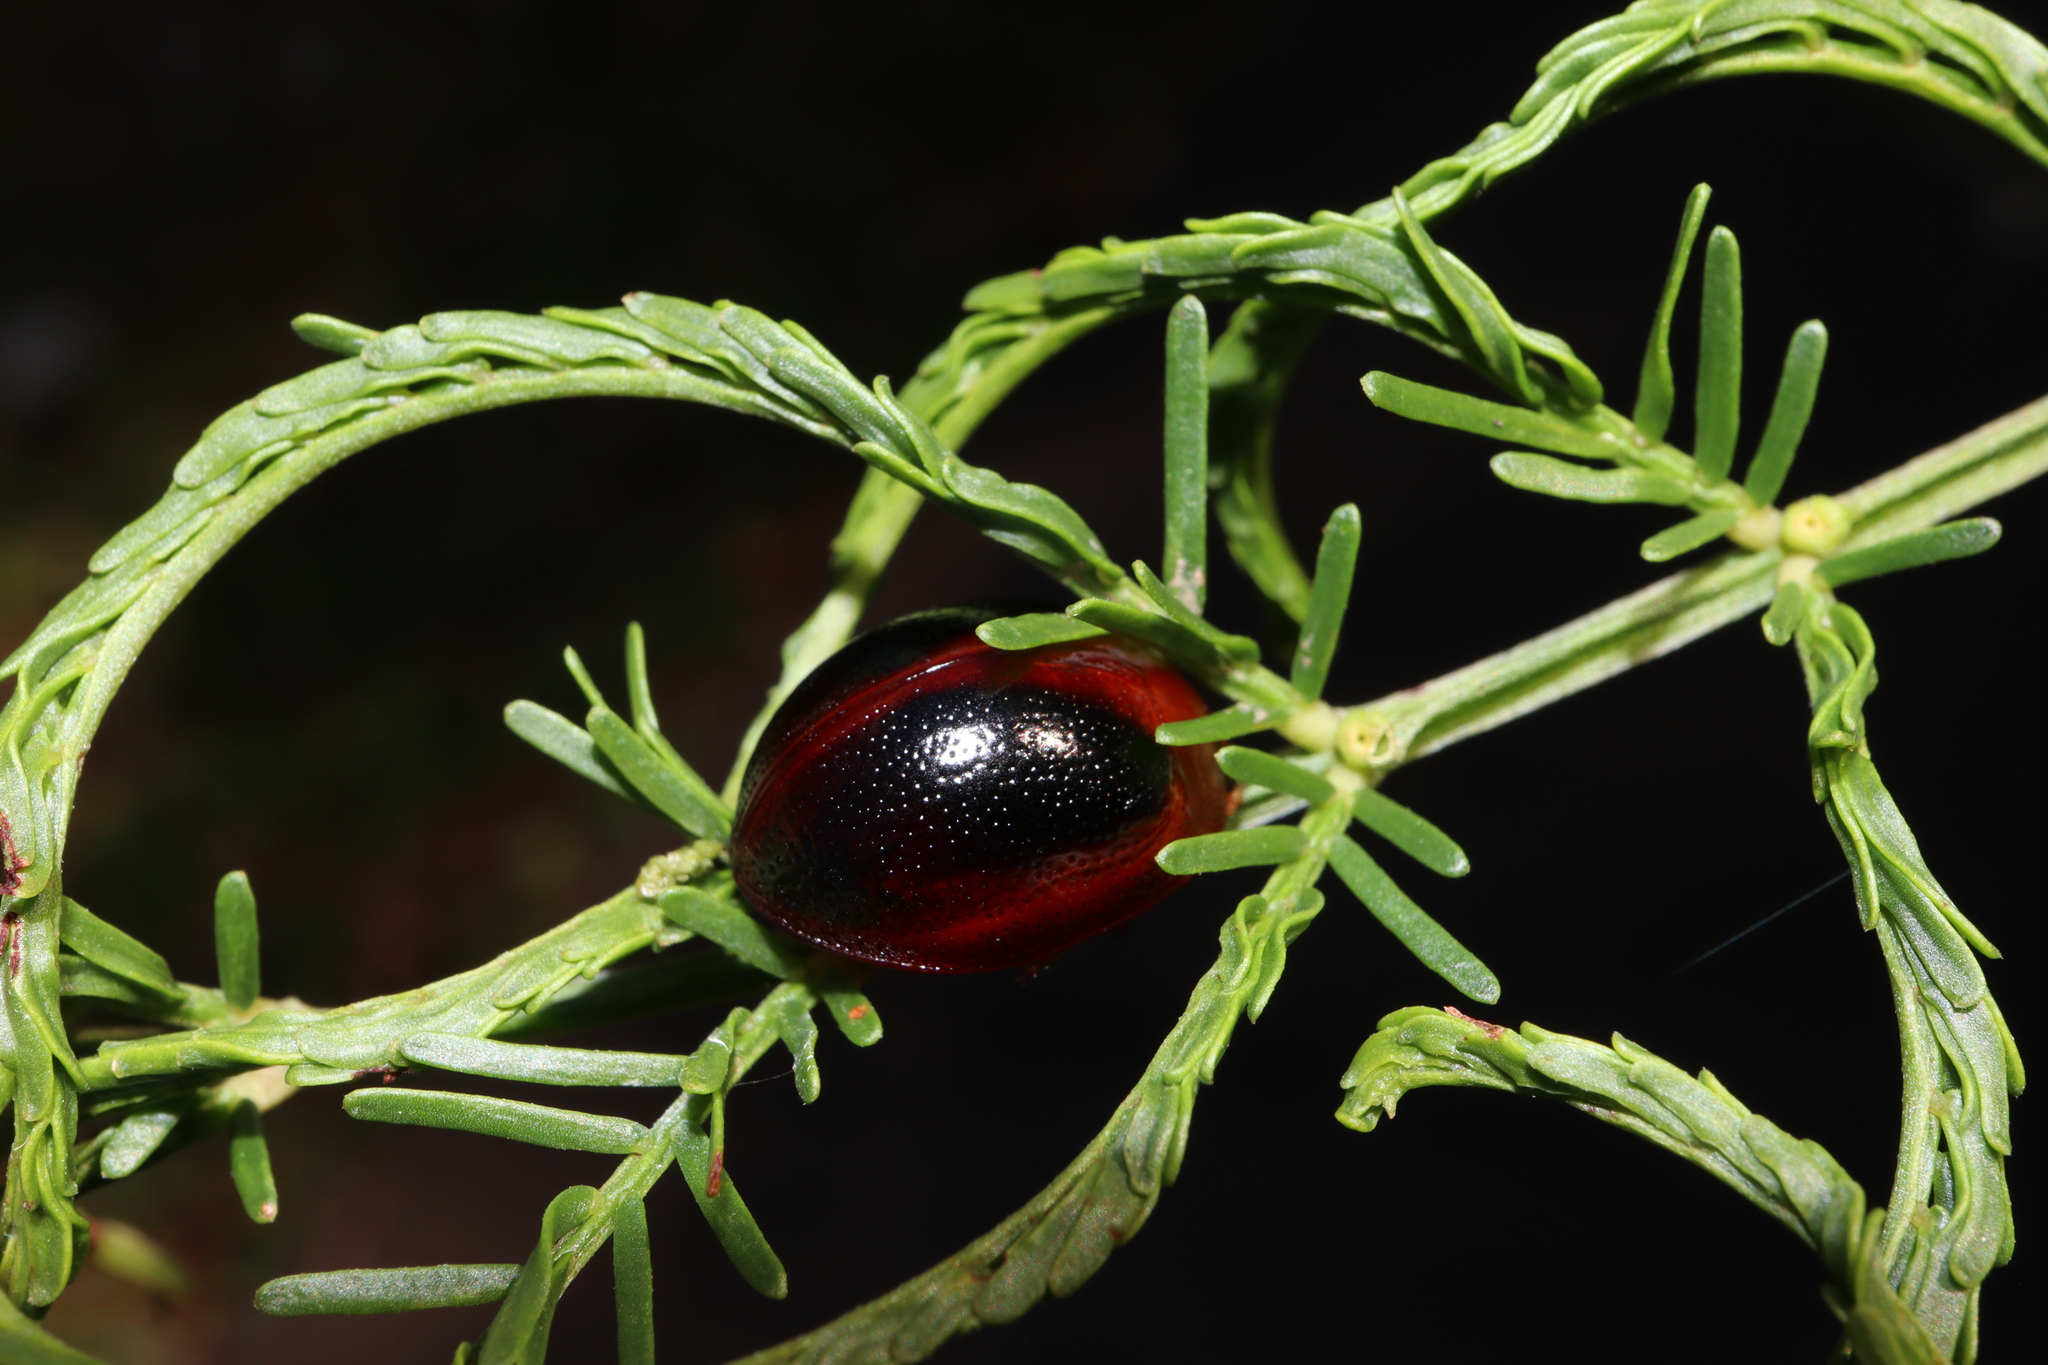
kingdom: Animalia
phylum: Arthropoda
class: Insecta
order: Coleoptera
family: Chrysomelidae
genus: Dicranosterna
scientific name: Dicranosterna
